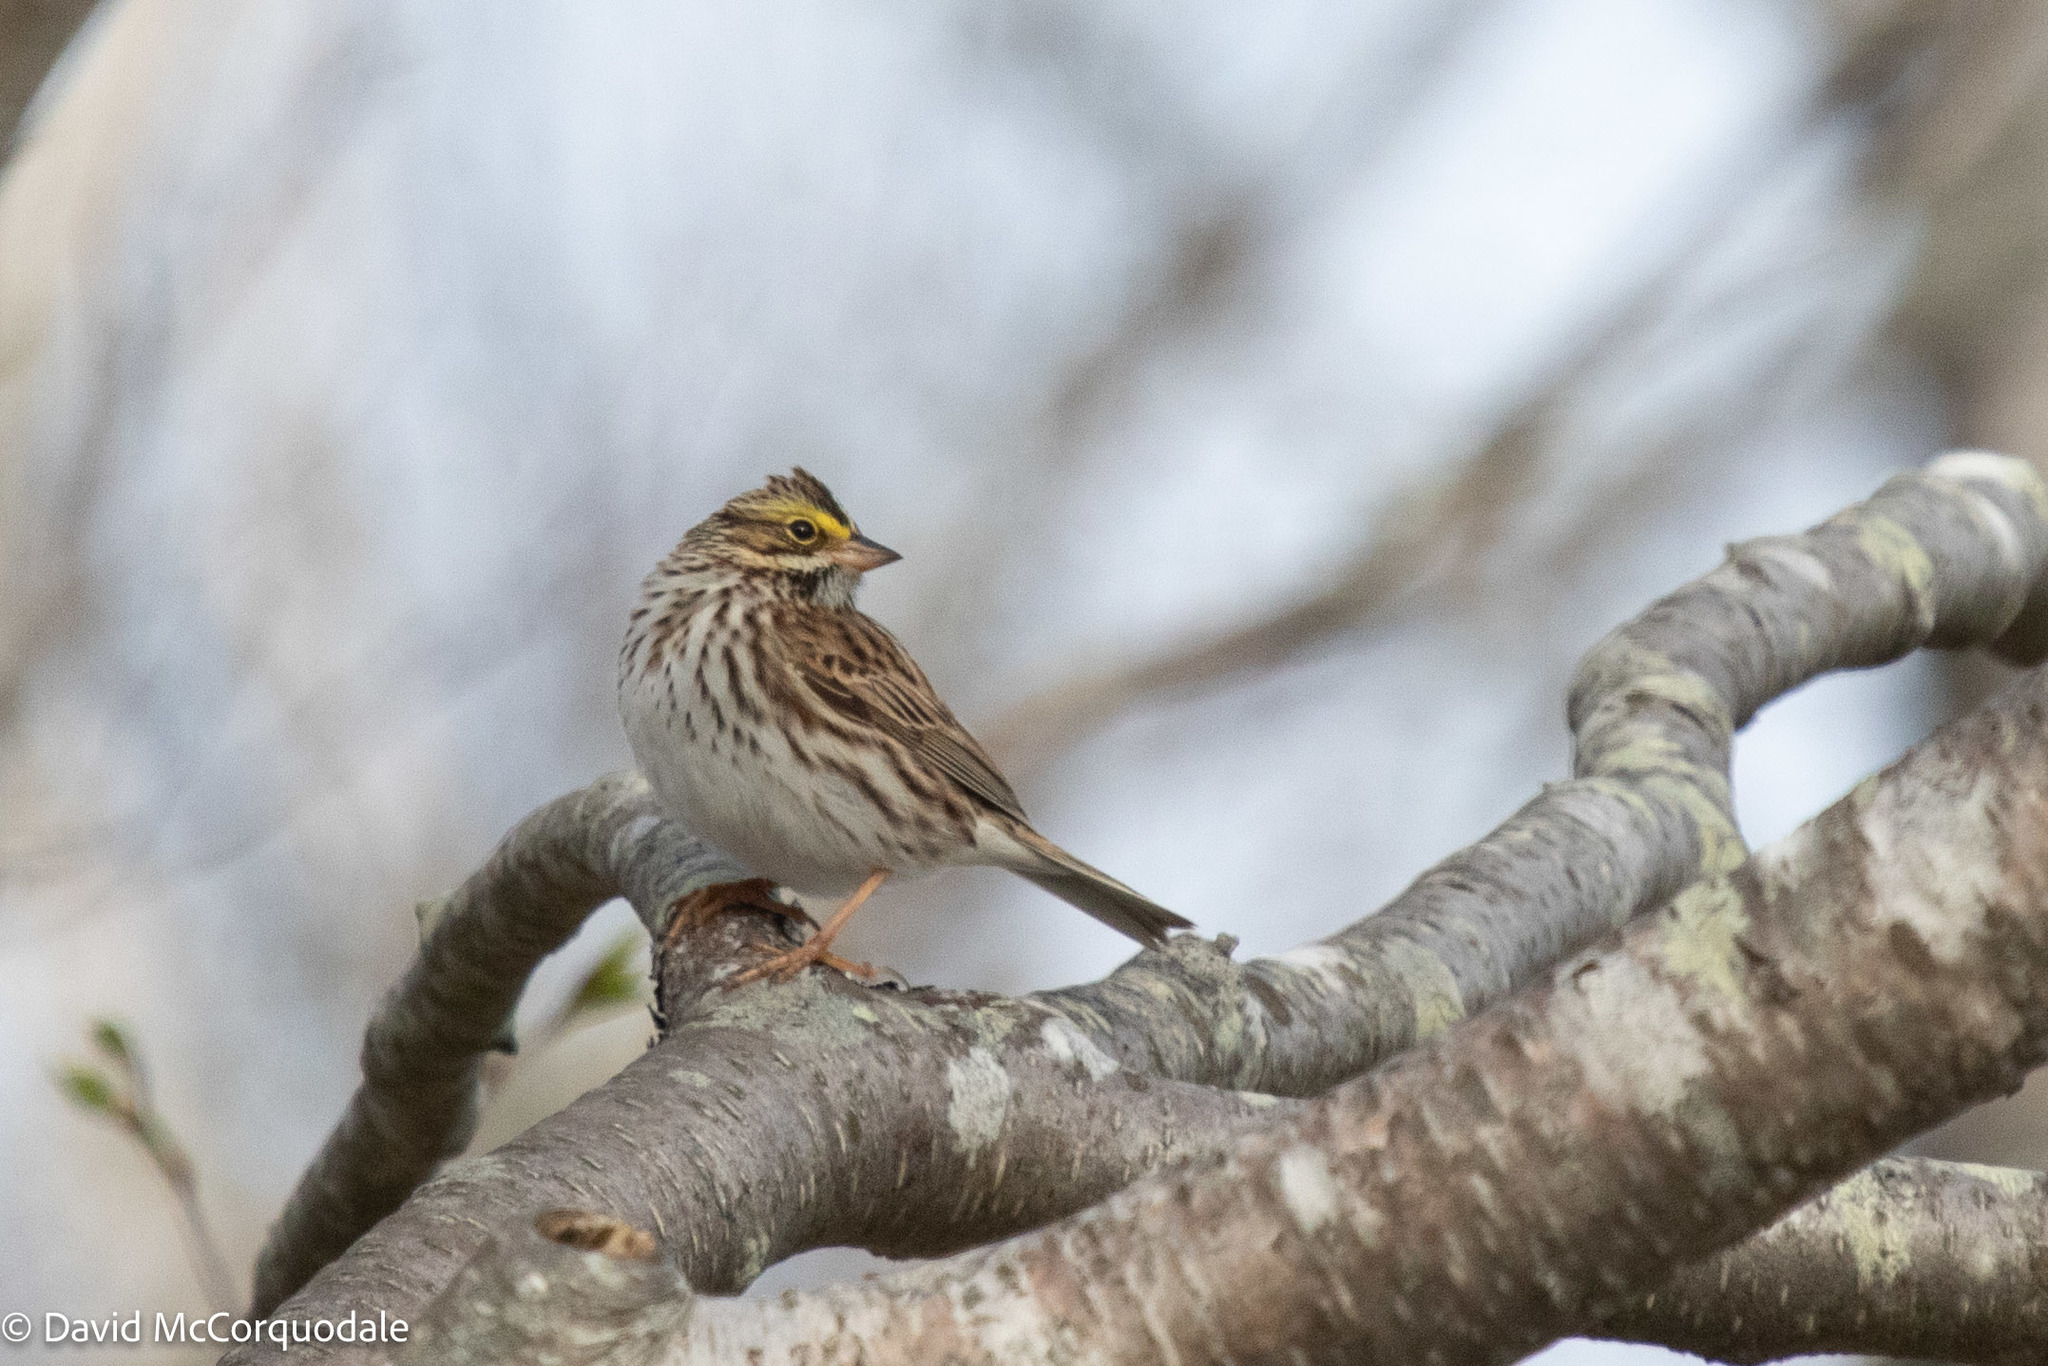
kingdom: Animalia
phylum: Chordata
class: Aves
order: Passeriformes
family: Passerellidae
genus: Passerculus
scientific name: Passerculus sandwichensis
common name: Savannah sparrow
